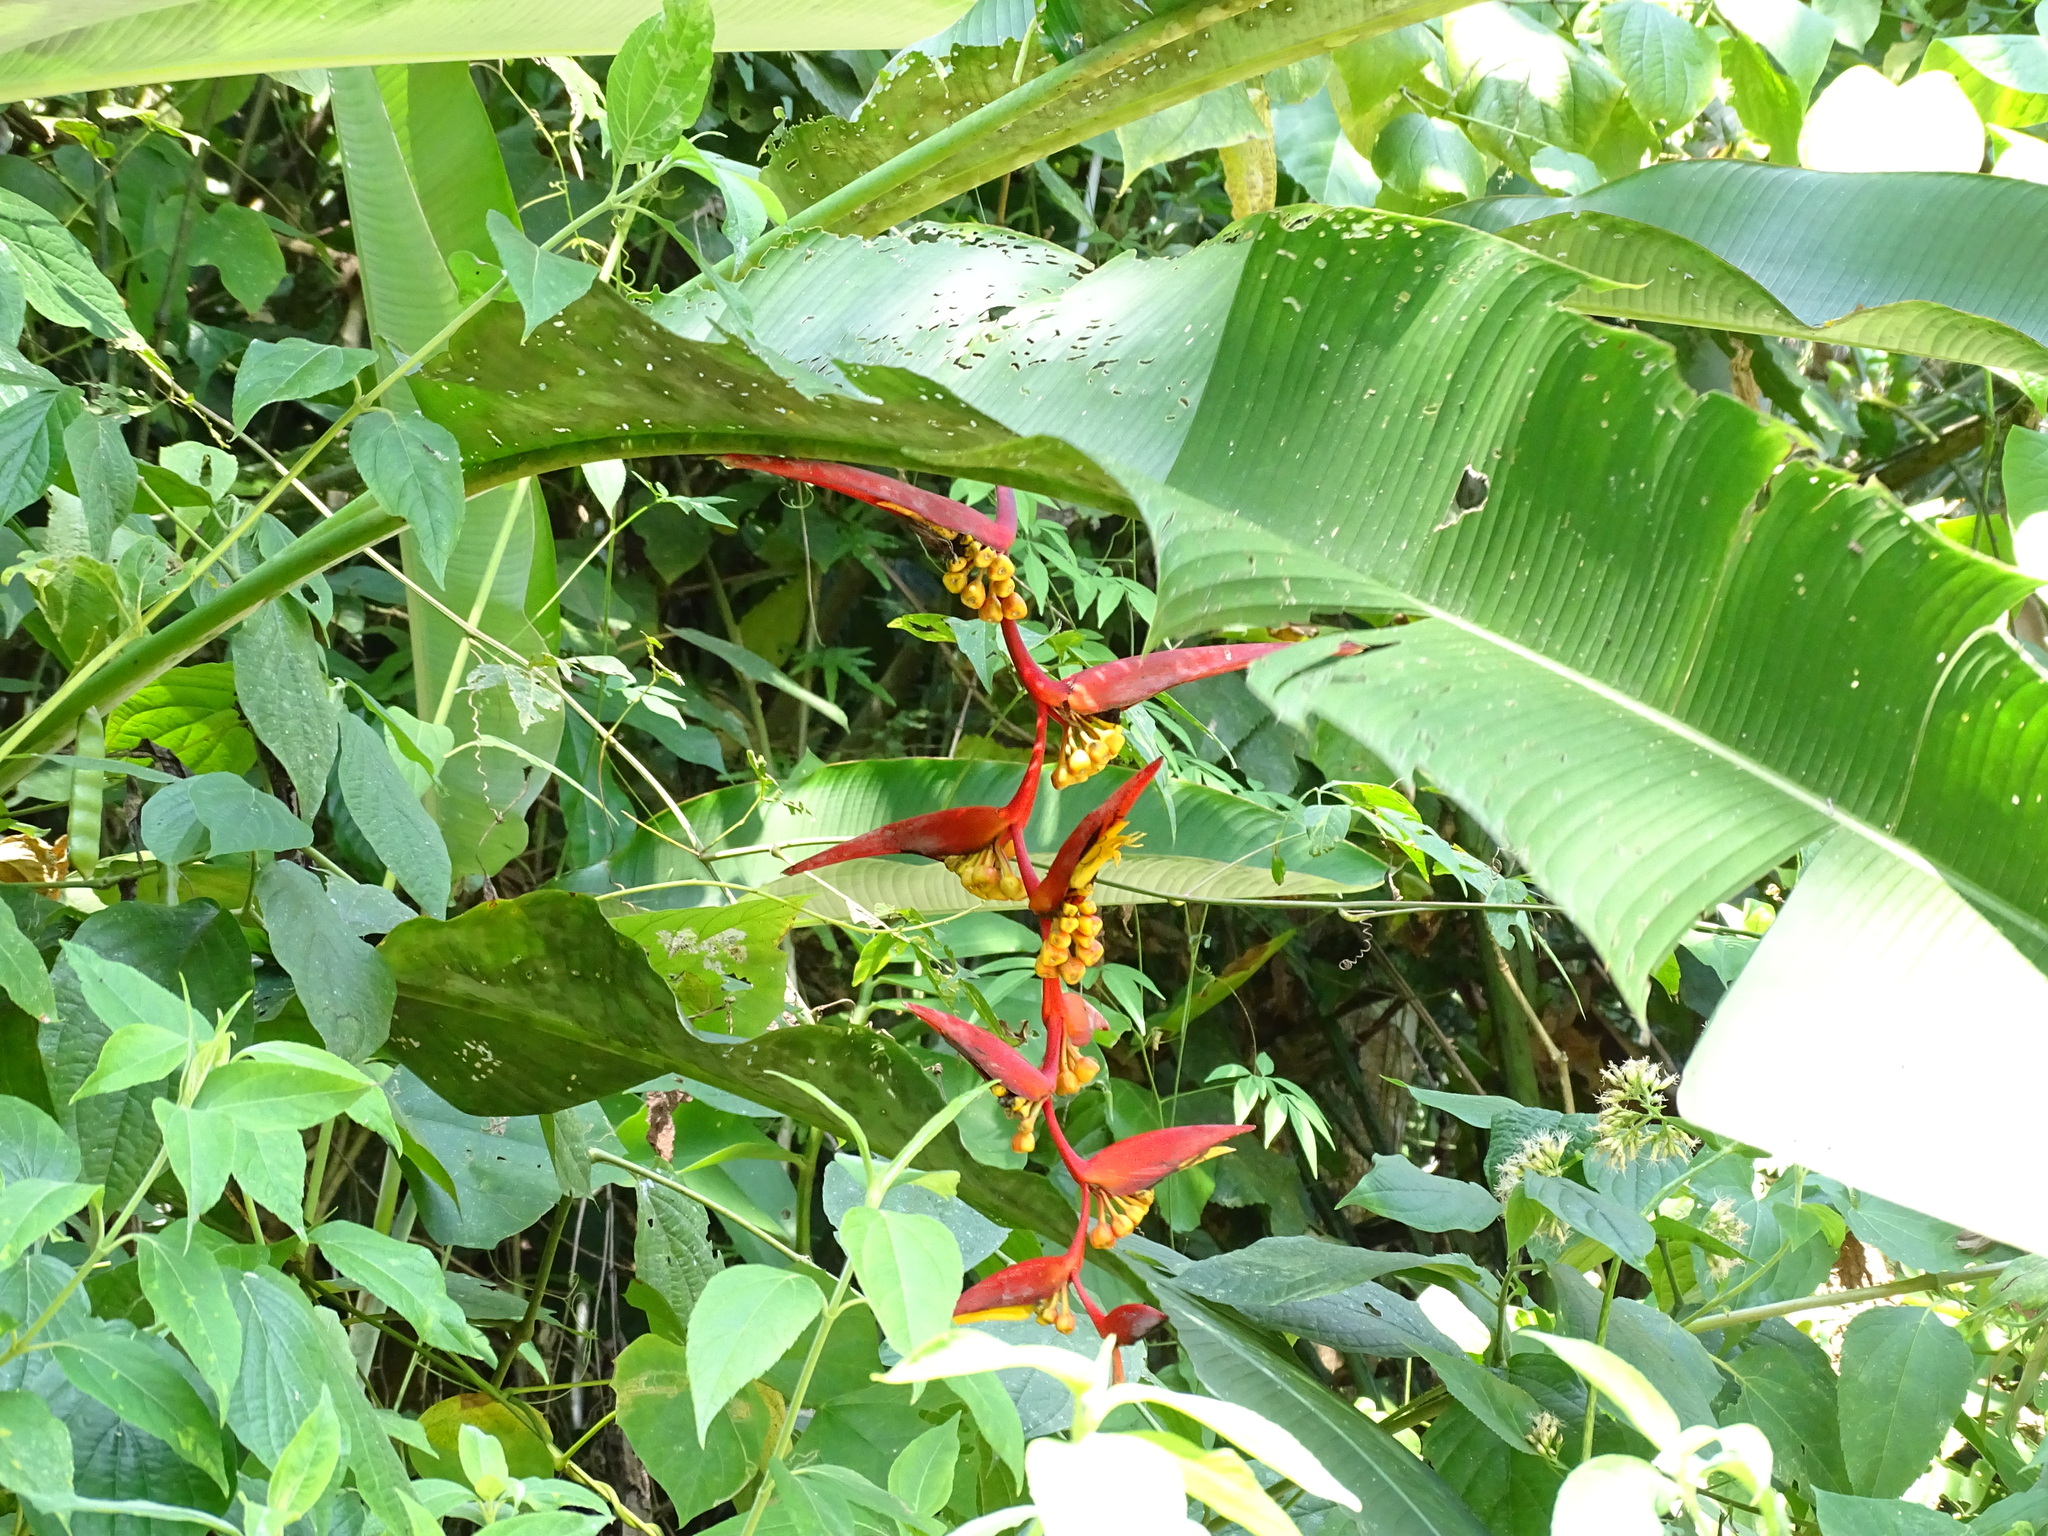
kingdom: Plantae
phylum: Tracheophyta
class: Liliopsida
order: Zingiberales
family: Heliconiaceae
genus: Heliconia
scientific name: Heliconia collinsiana
